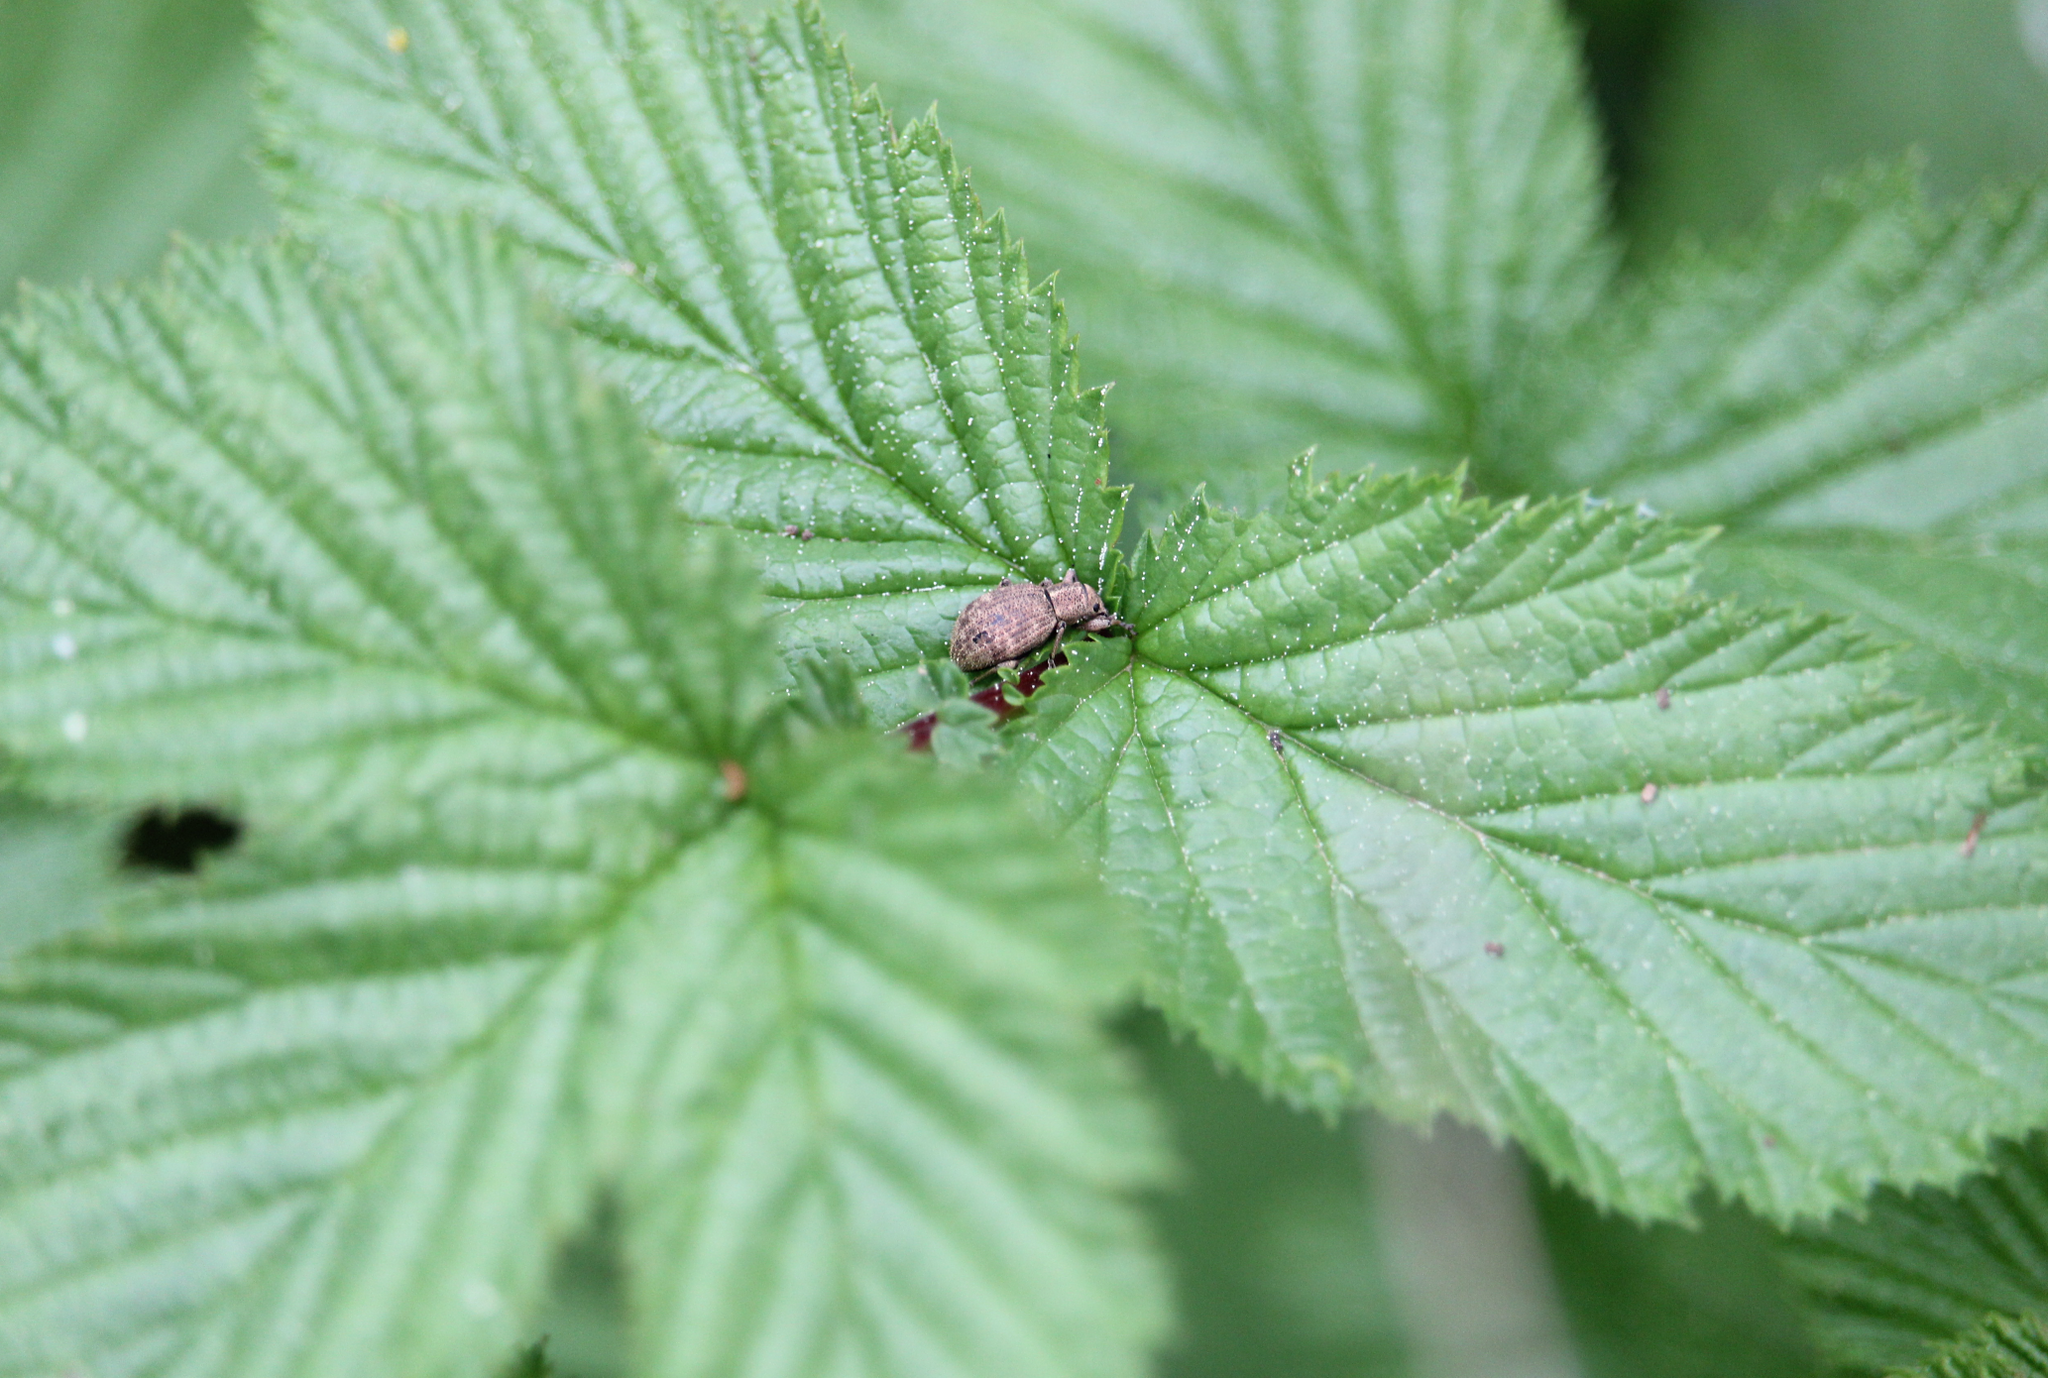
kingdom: Animalia
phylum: Arthropoda
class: Insecta
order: Coleoptera
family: Curculionidae
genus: Sciaphilus
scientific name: Sciaphilus asperatus
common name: Weevil
